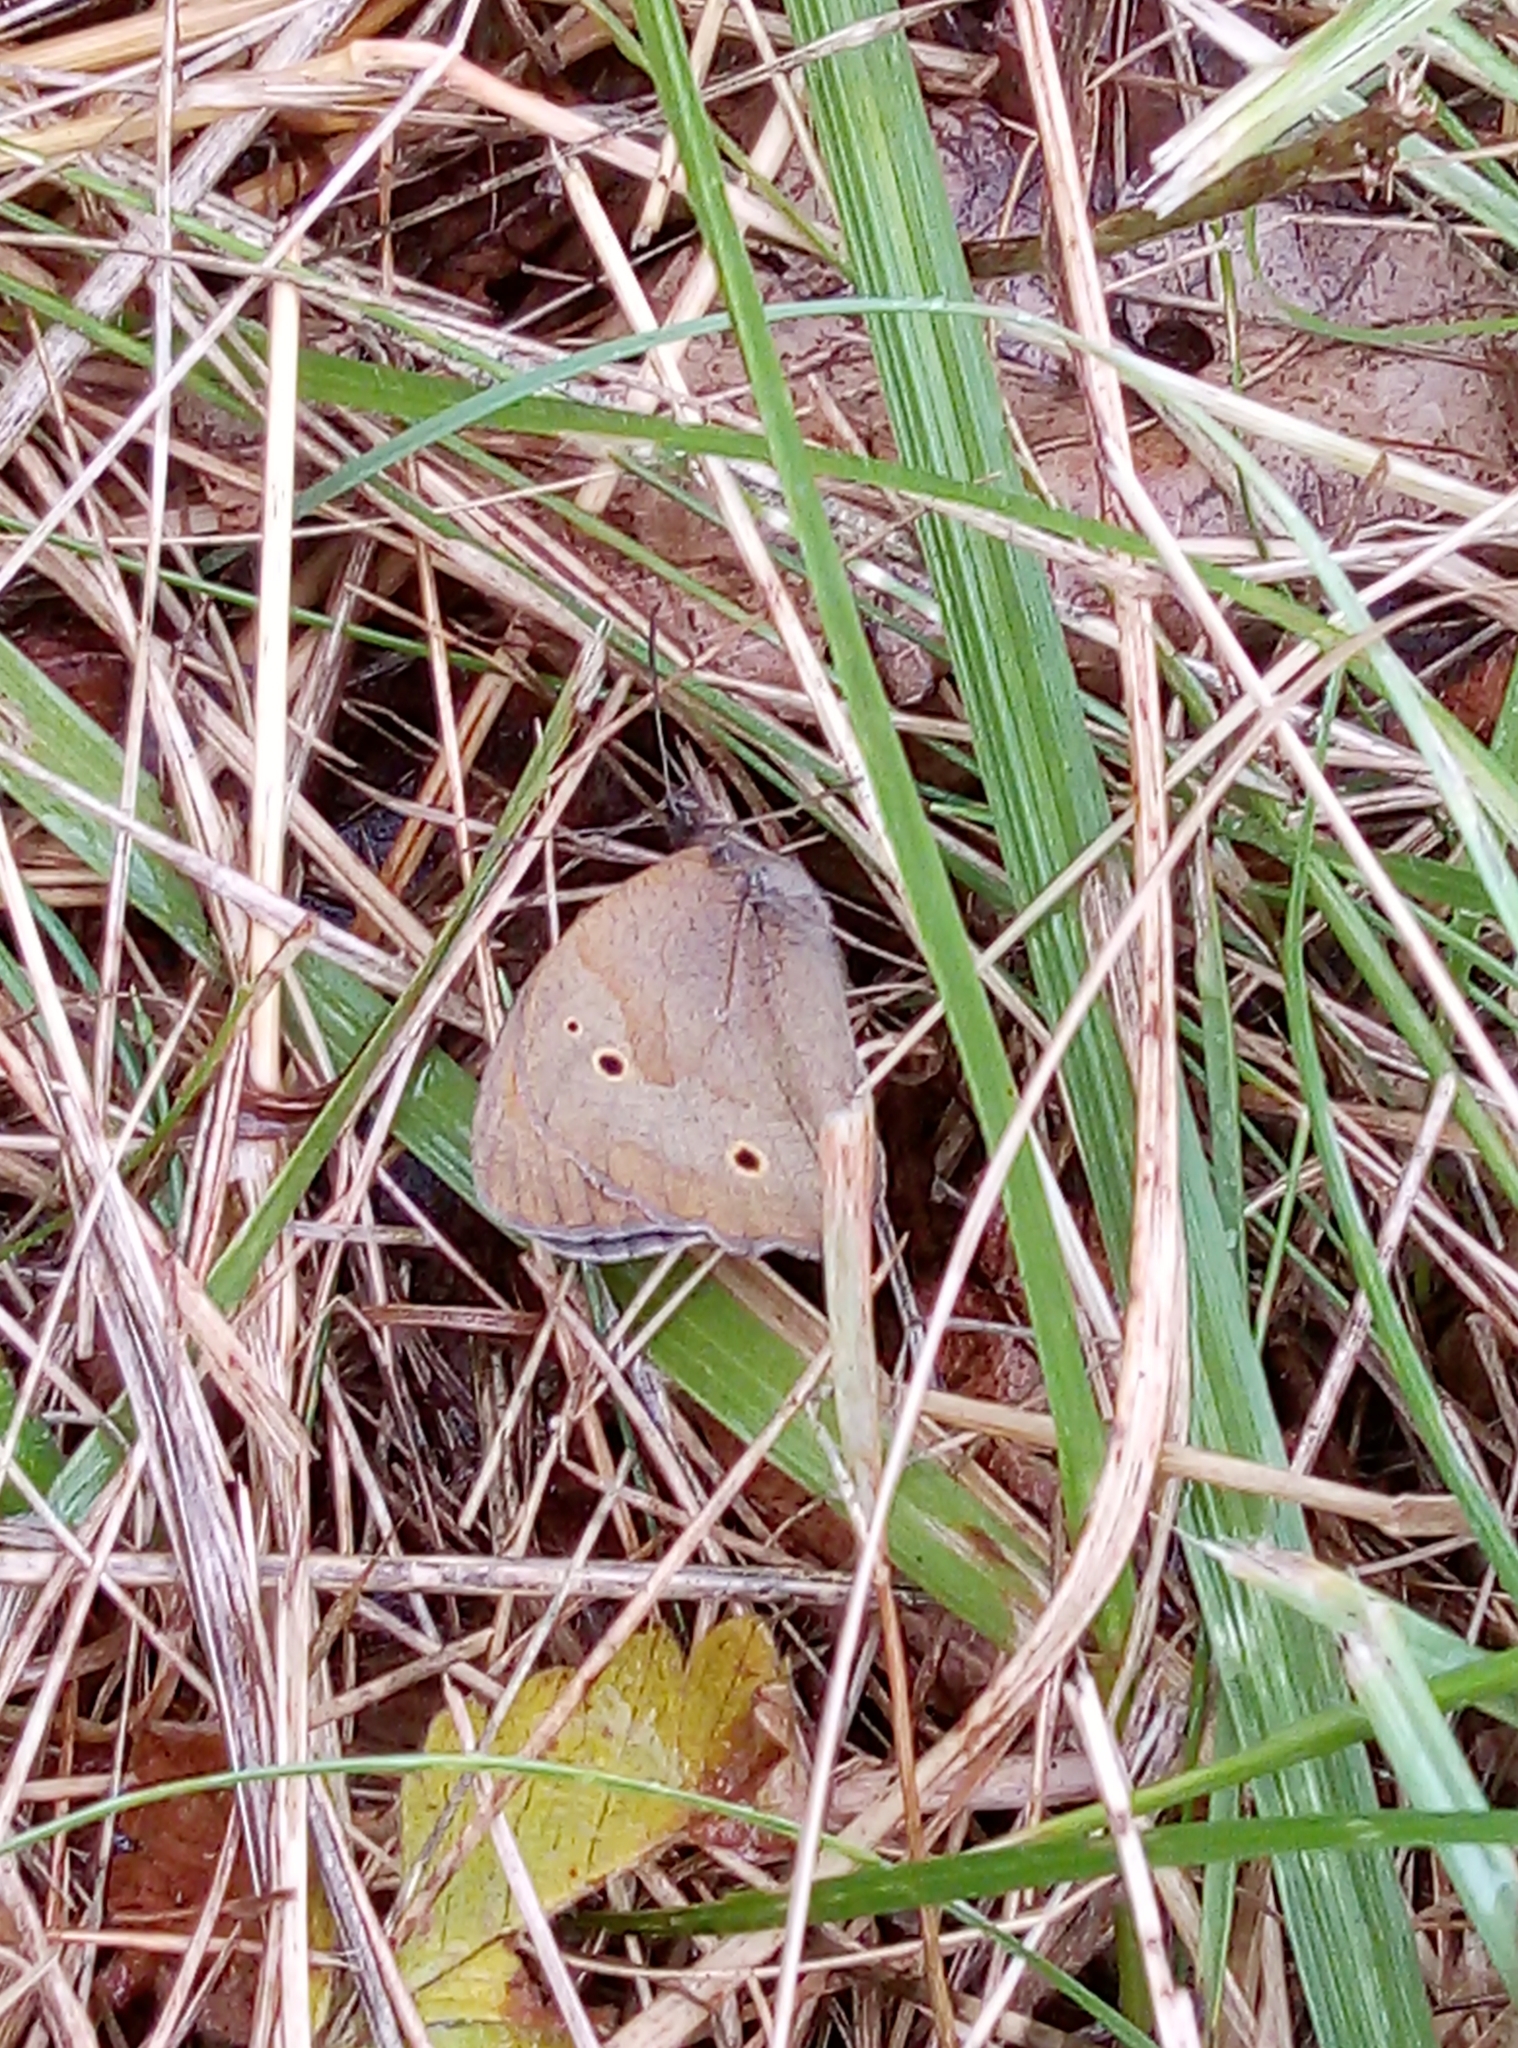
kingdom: Animalia
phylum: Arthropoda
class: Insecta
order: Lepidoptera
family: Nymphalidae
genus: Maniola
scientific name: Maniola jurtina
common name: Meadow brown
